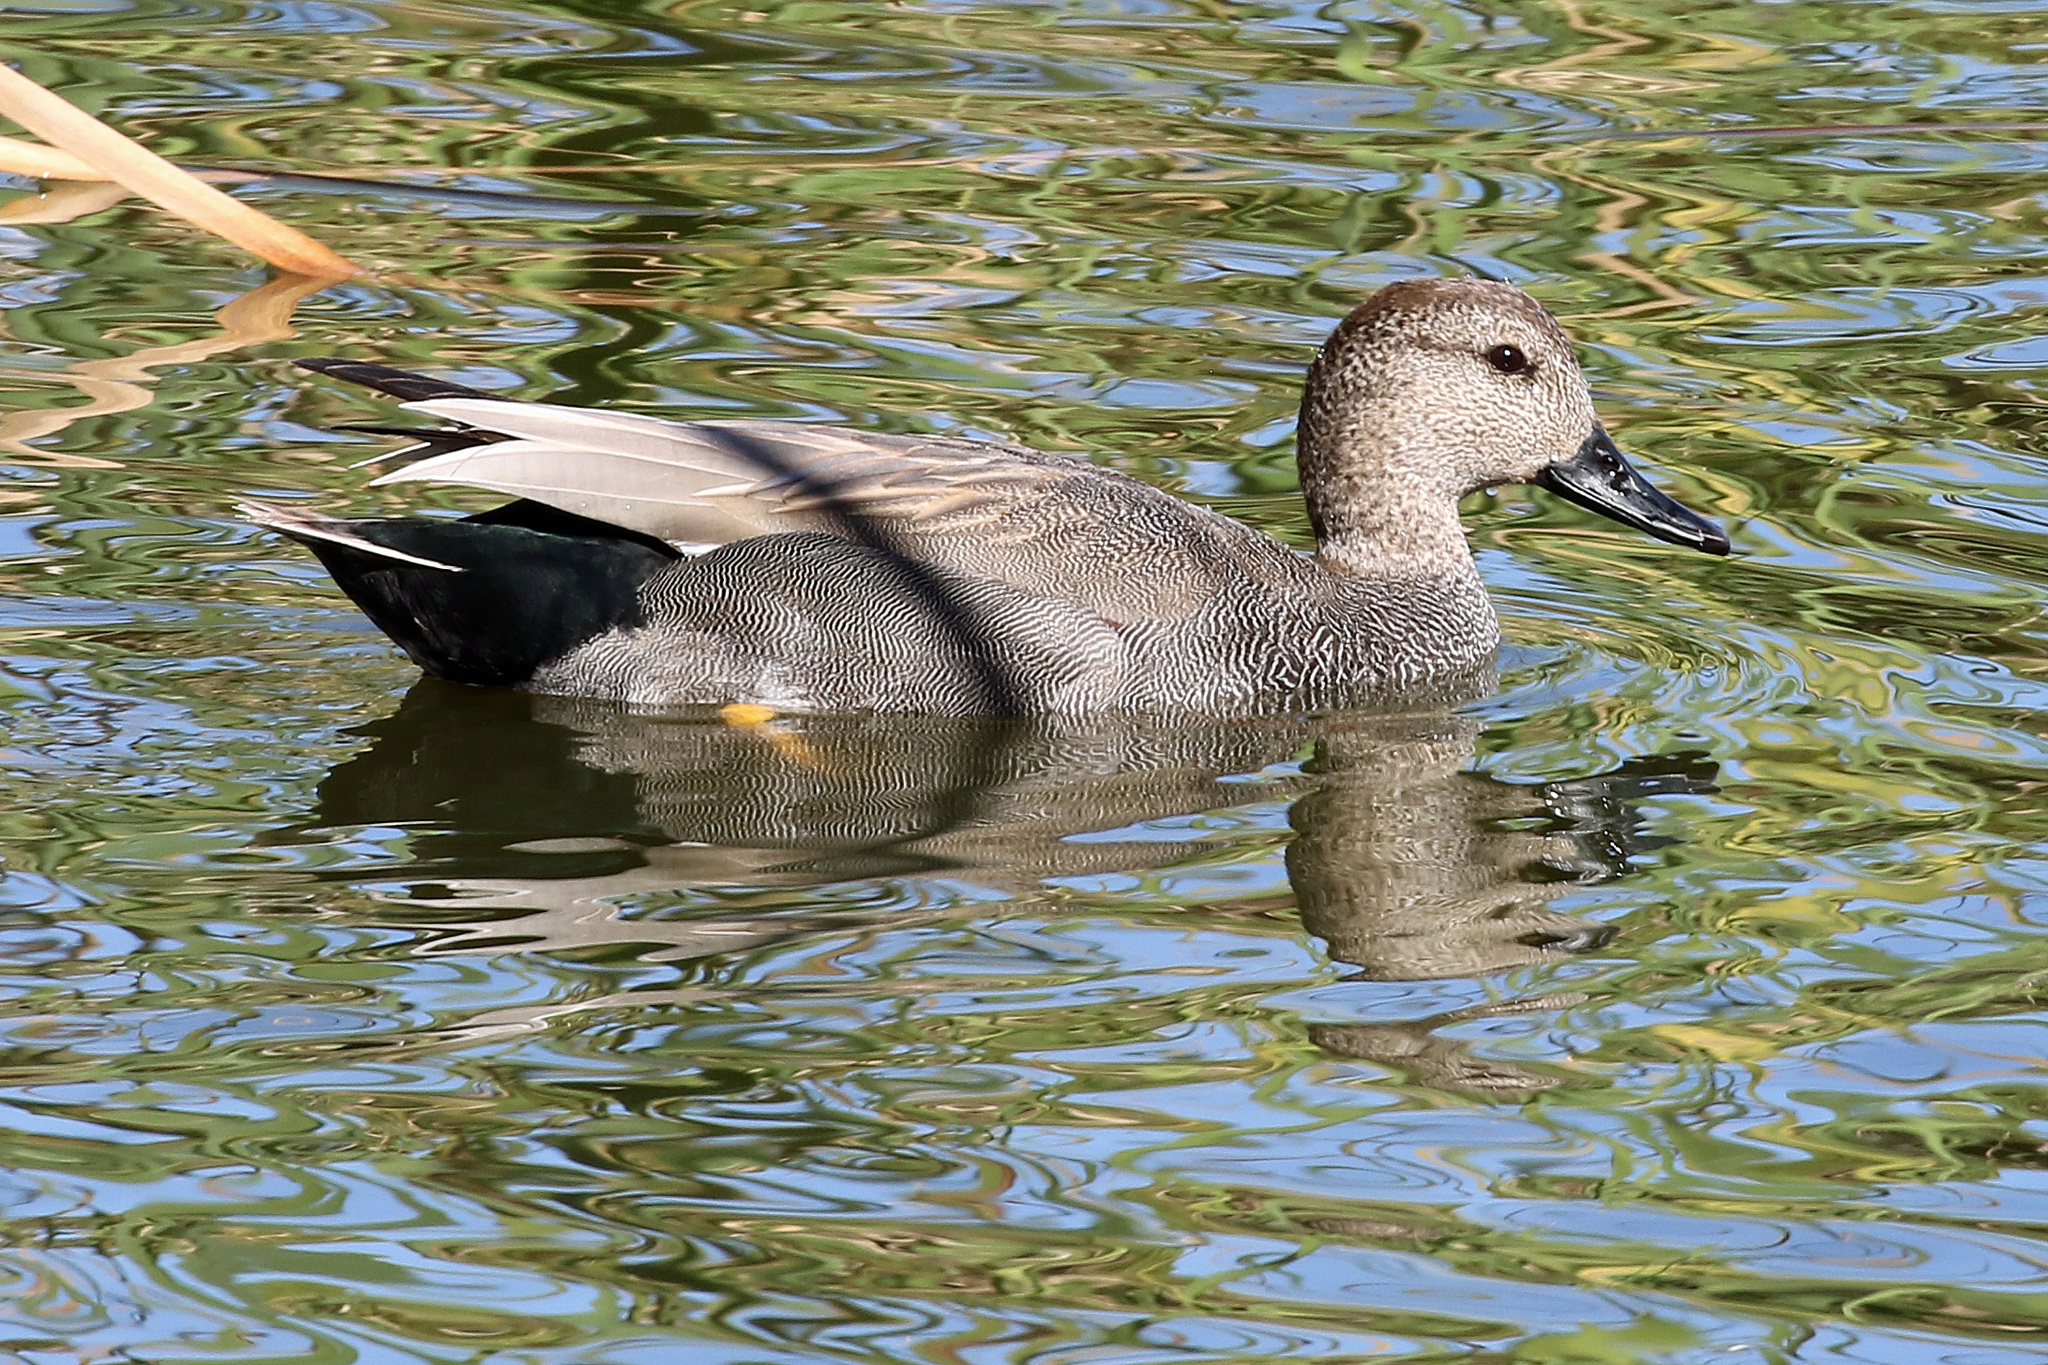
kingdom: Animalia
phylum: Chordata
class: Aves
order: Anseriformes
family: Anatidae
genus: Mareca
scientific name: Mareca strepera
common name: Gadwall
